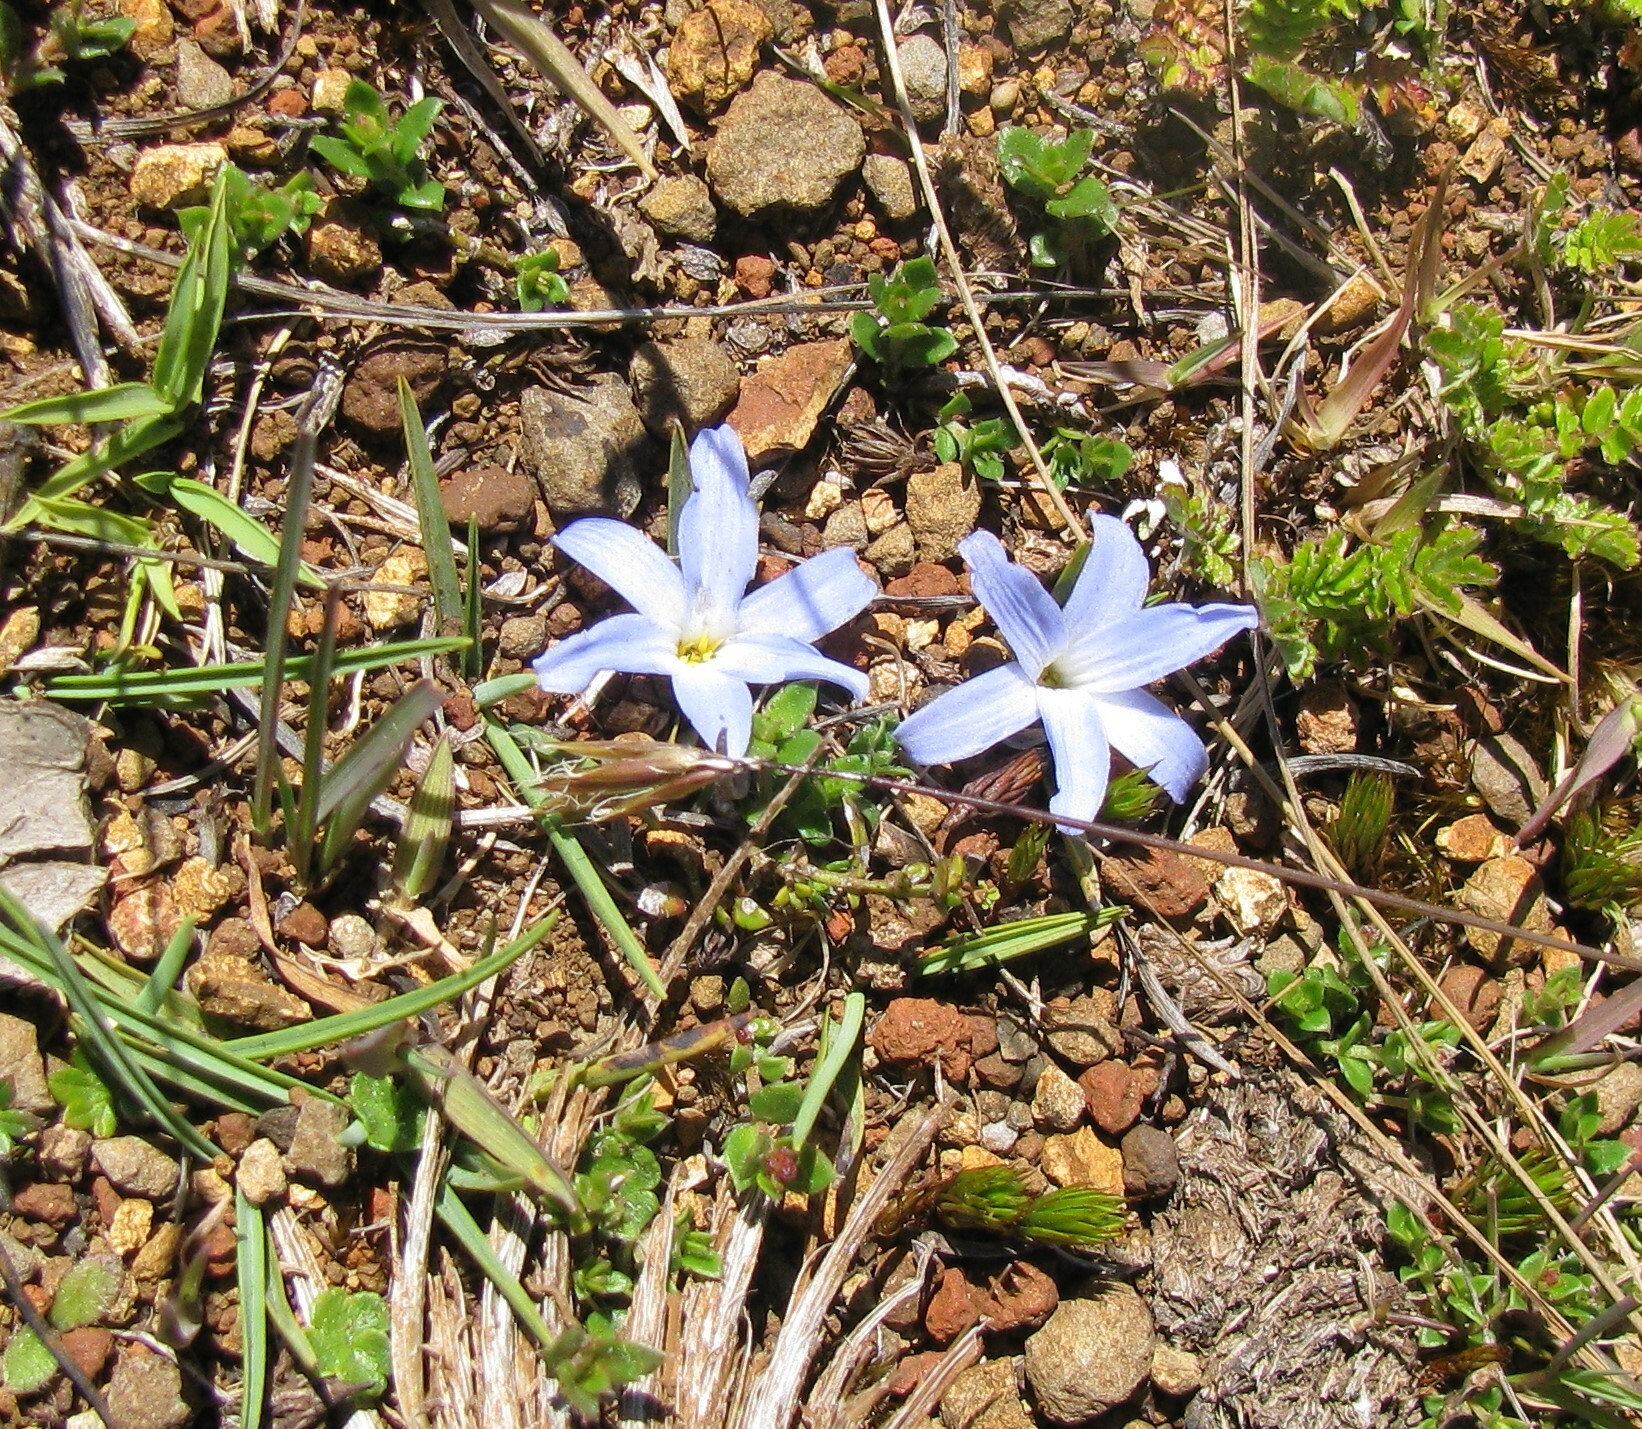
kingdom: Plantae
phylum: Tracheophyta
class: Liliopsida
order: Asparagales
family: Asphodelaceae
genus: Herpolirion
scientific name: Herpolirion novae-zelandiae
